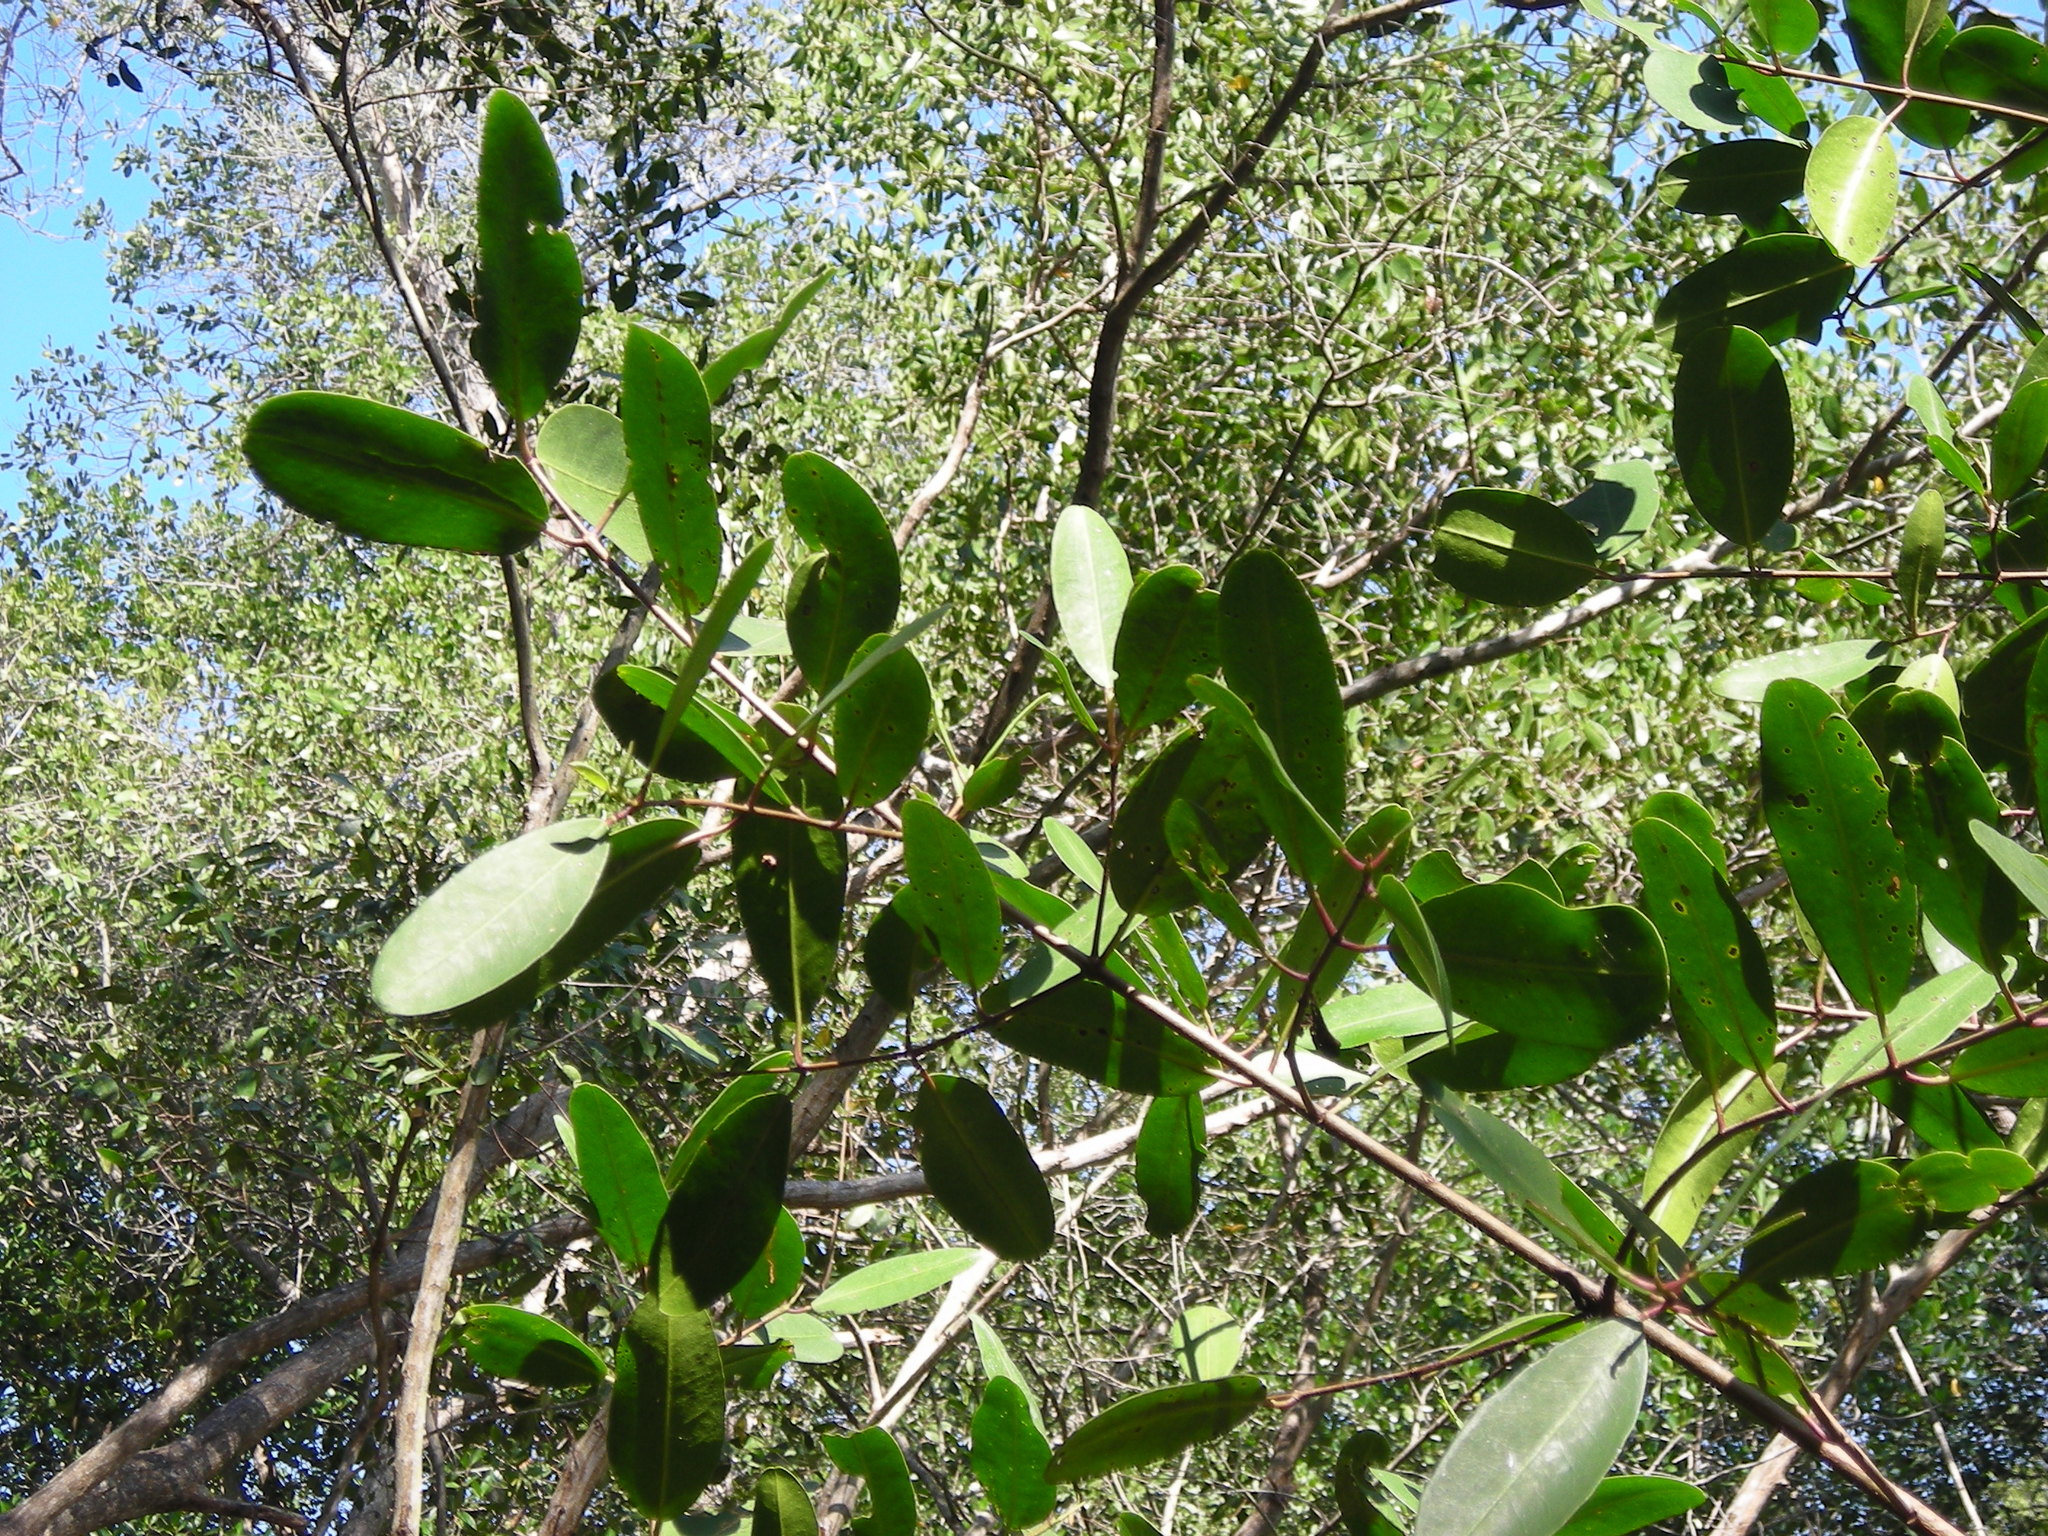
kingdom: Plantae
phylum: Tracheophyta
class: Magnoliopsida
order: Myrtales
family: Combretaceae
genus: Laguncularia
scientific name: Laguncularia racemosa
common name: White mangrove
